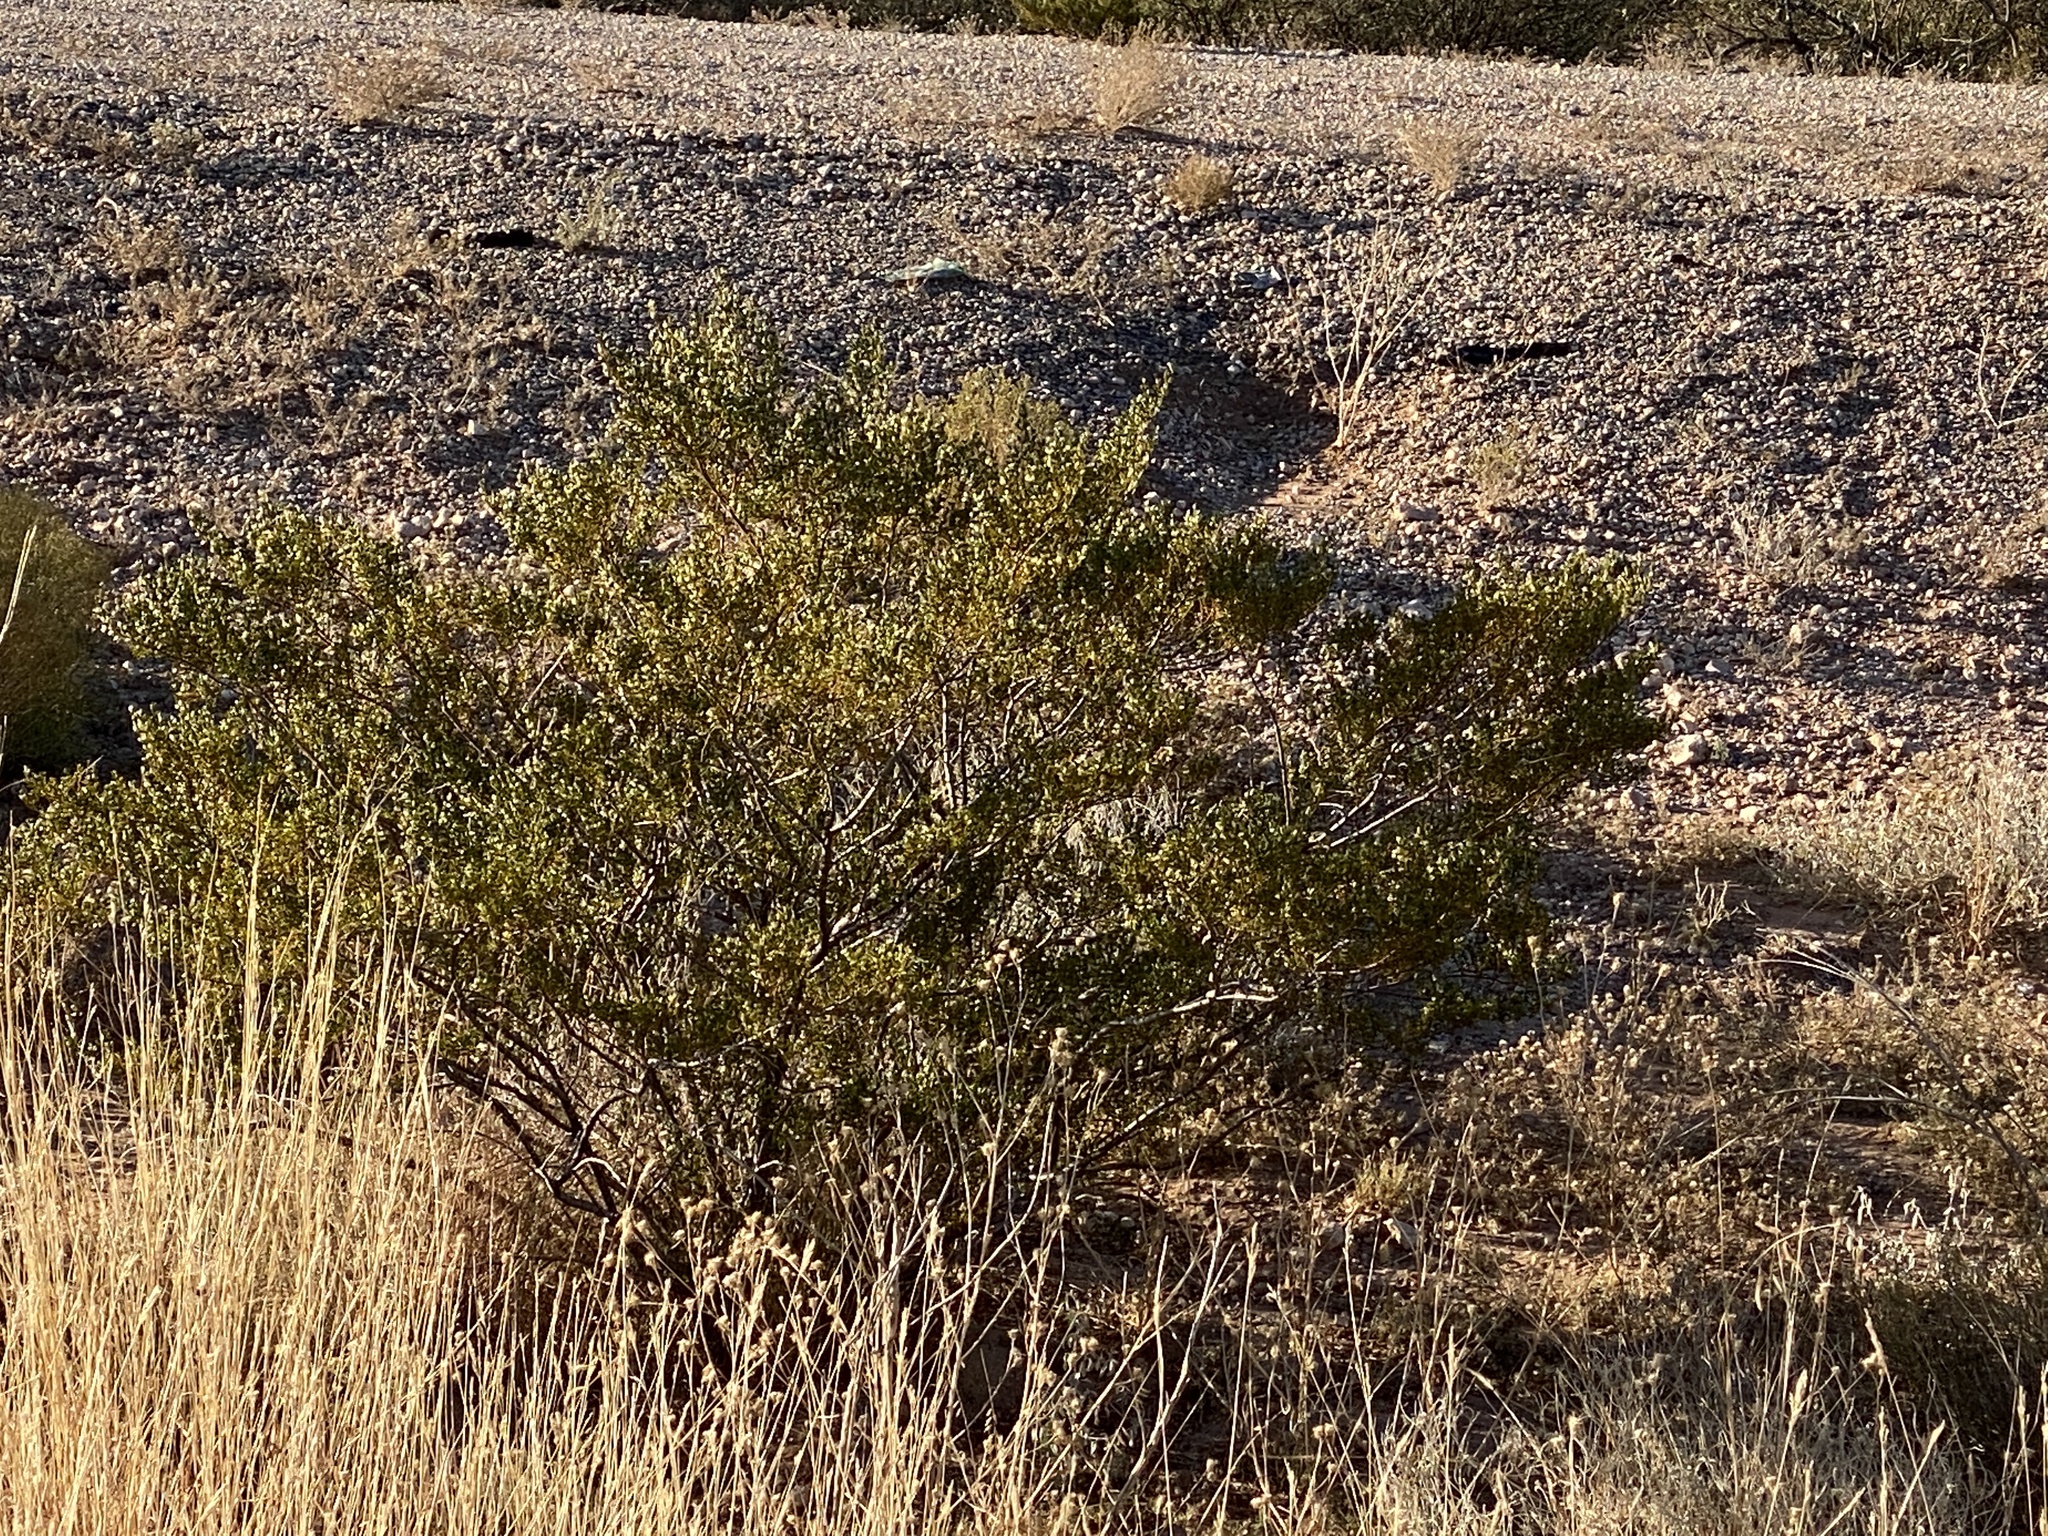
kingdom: Plantae
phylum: Tracheophyta
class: Magnoliopsida
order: Zygophyllales
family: Zygophyllaceae
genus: Larrea
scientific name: Larrea tridentata
